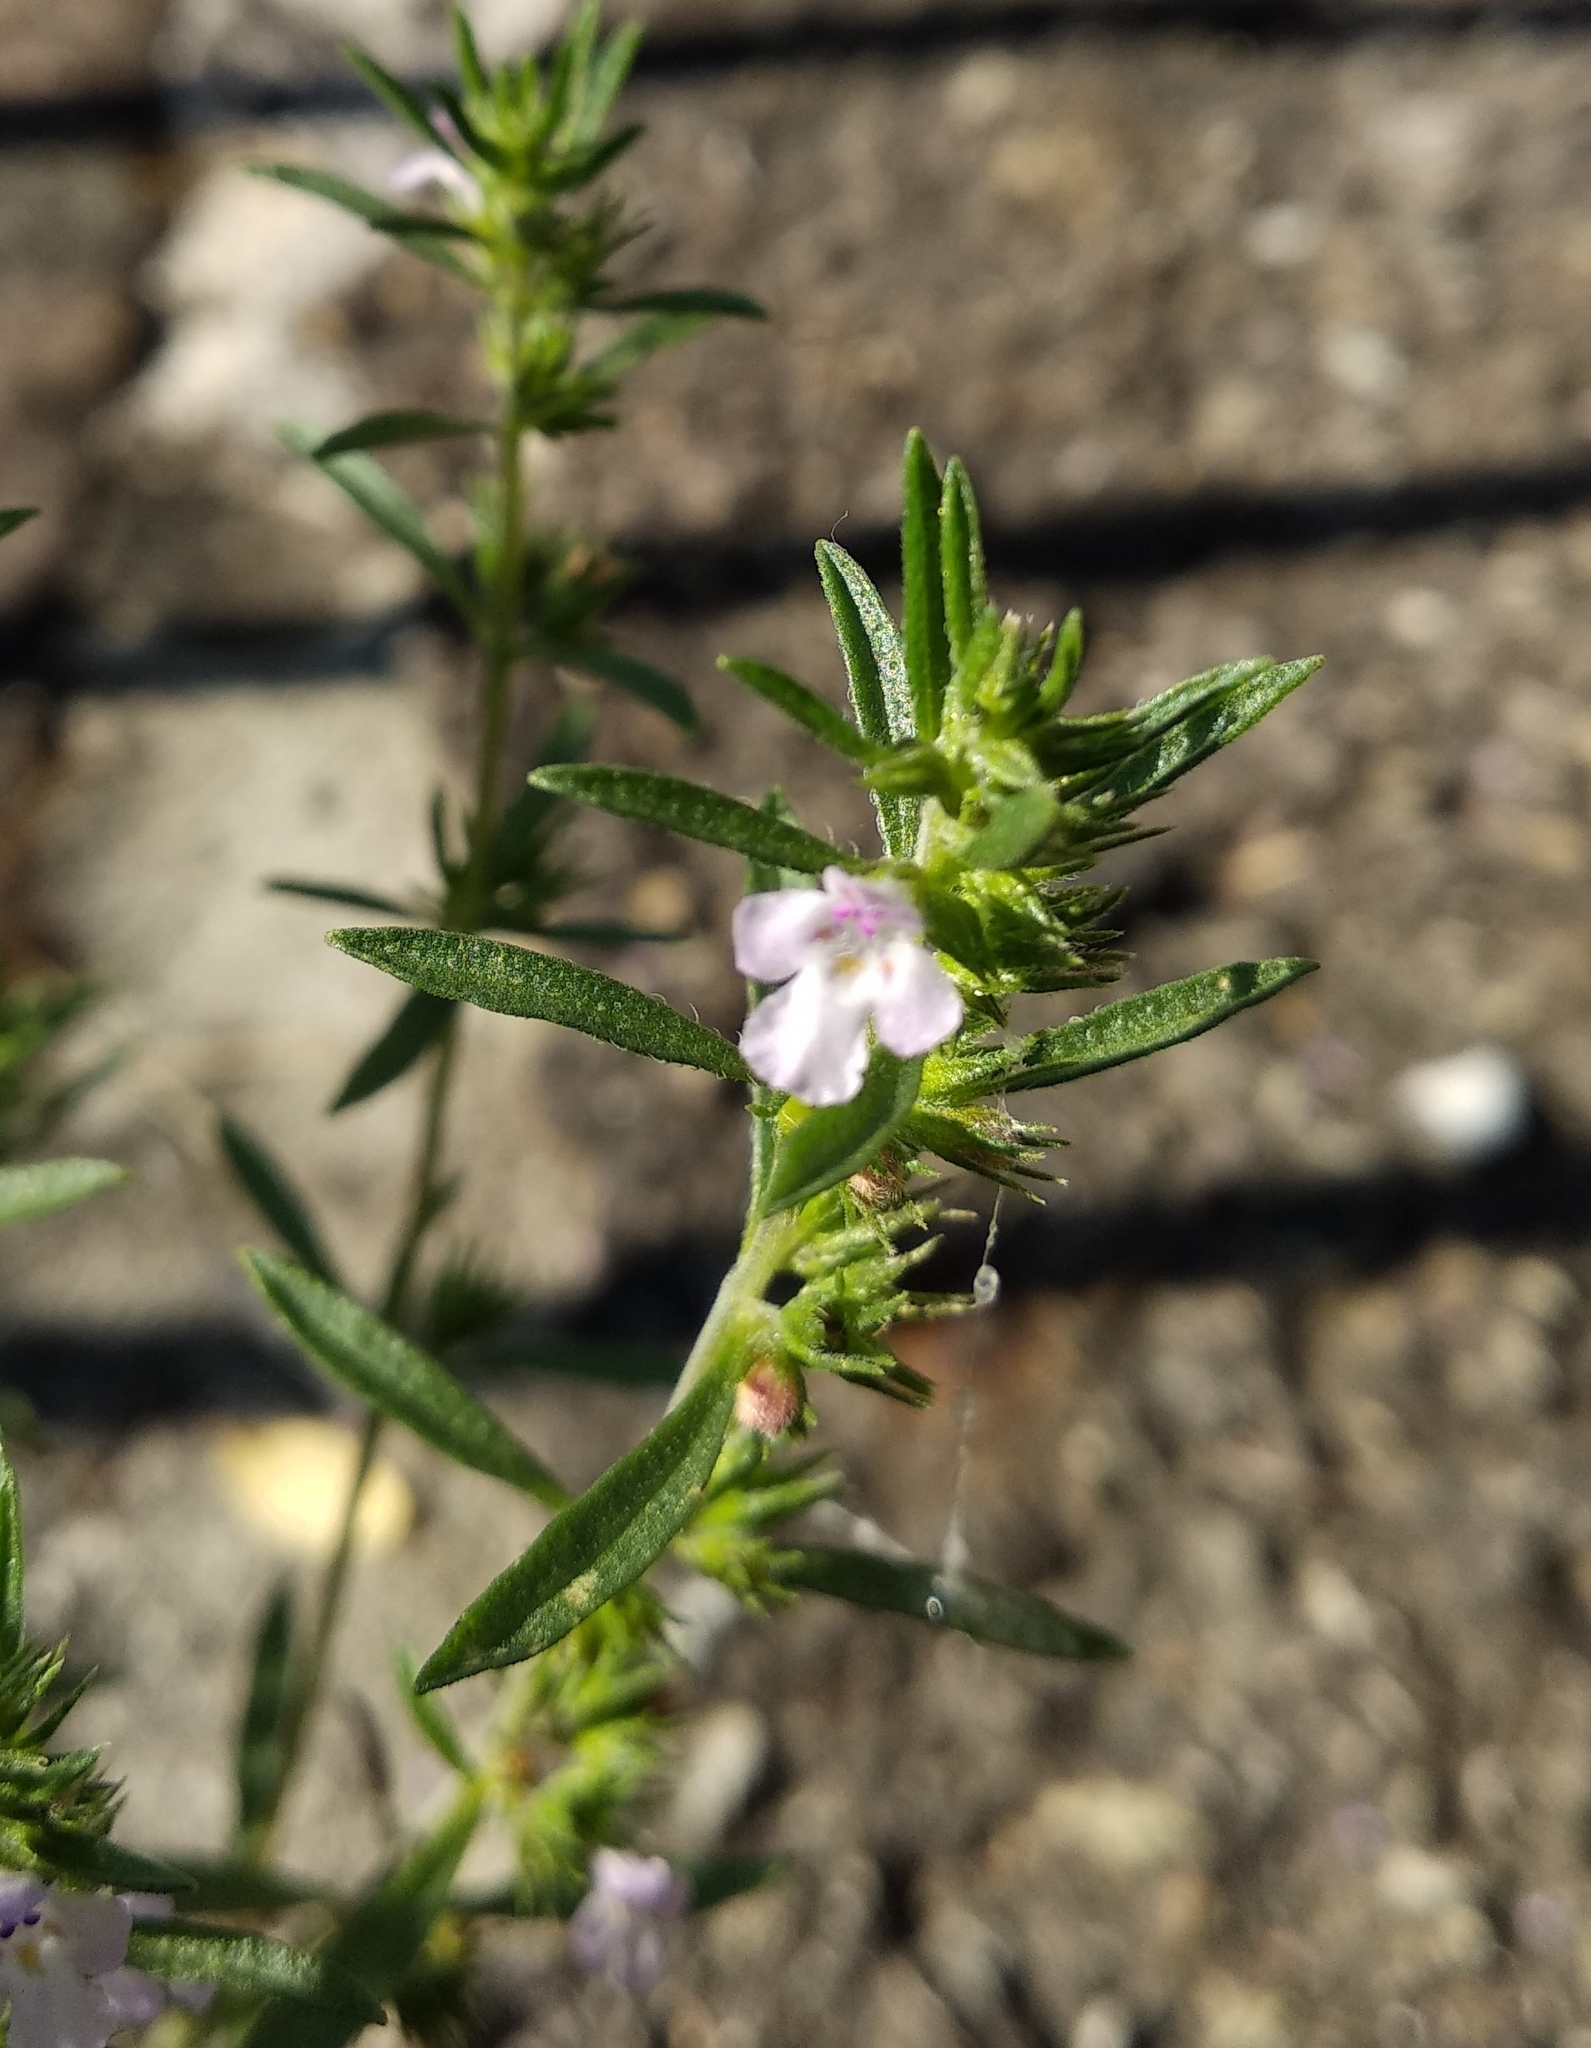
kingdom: Plantae
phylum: Tracheophyta
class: Magnoliopsida
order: Lamiales
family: Lamiaceae
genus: Satureja
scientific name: Satureja hortensis
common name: Summer savory
